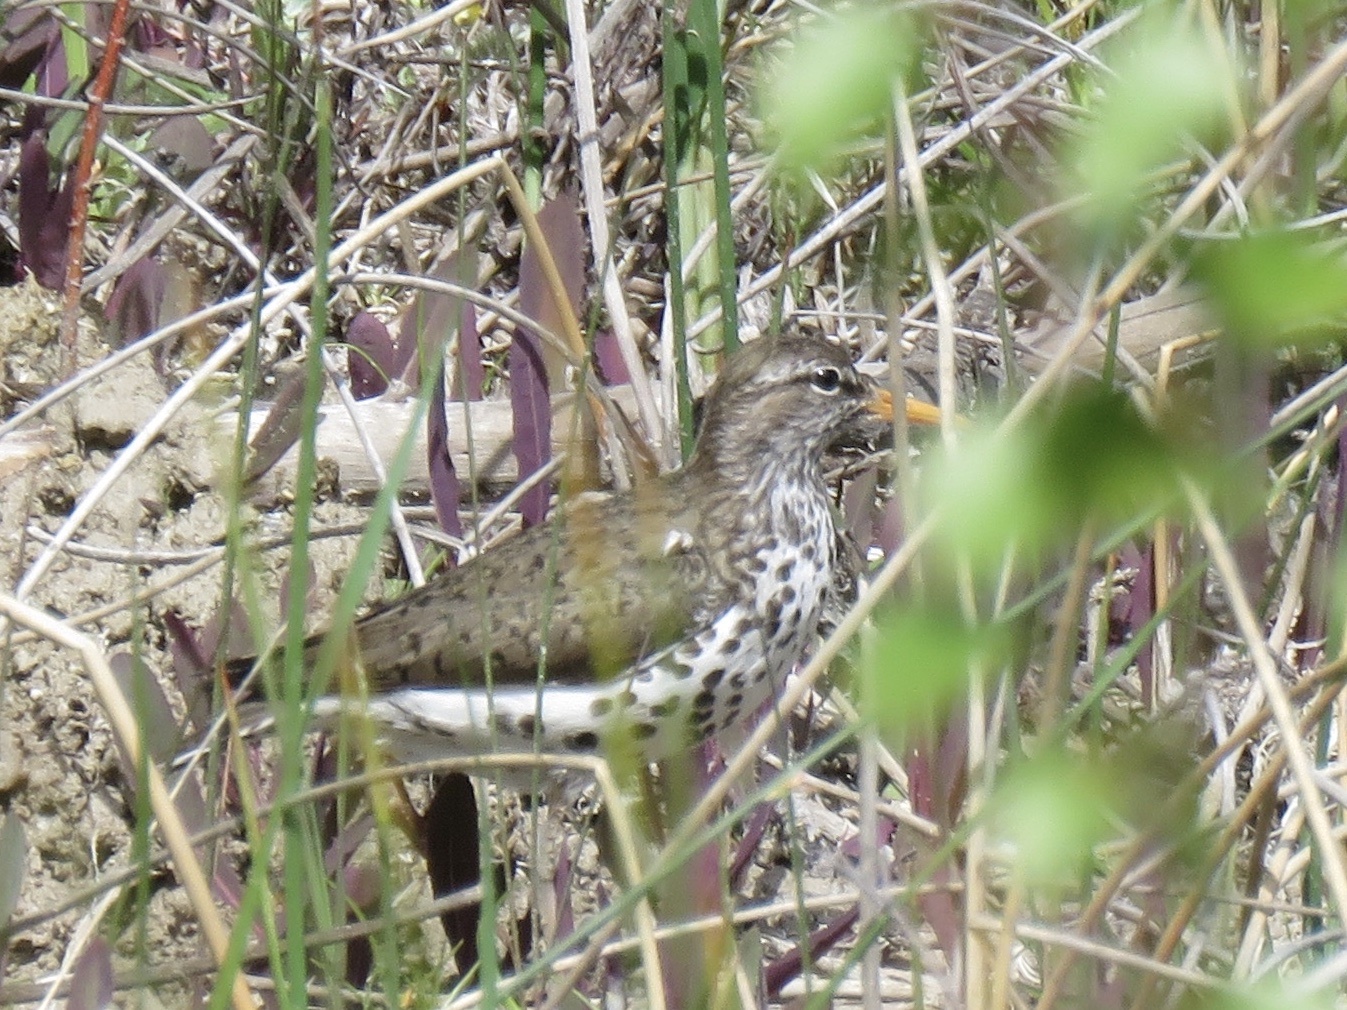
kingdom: Animalia
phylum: Chordata
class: Aves
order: Charadriiformes
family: Scolopacidae
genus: Actitis
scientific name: Actitis macularius
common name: Spotted sandpiper
